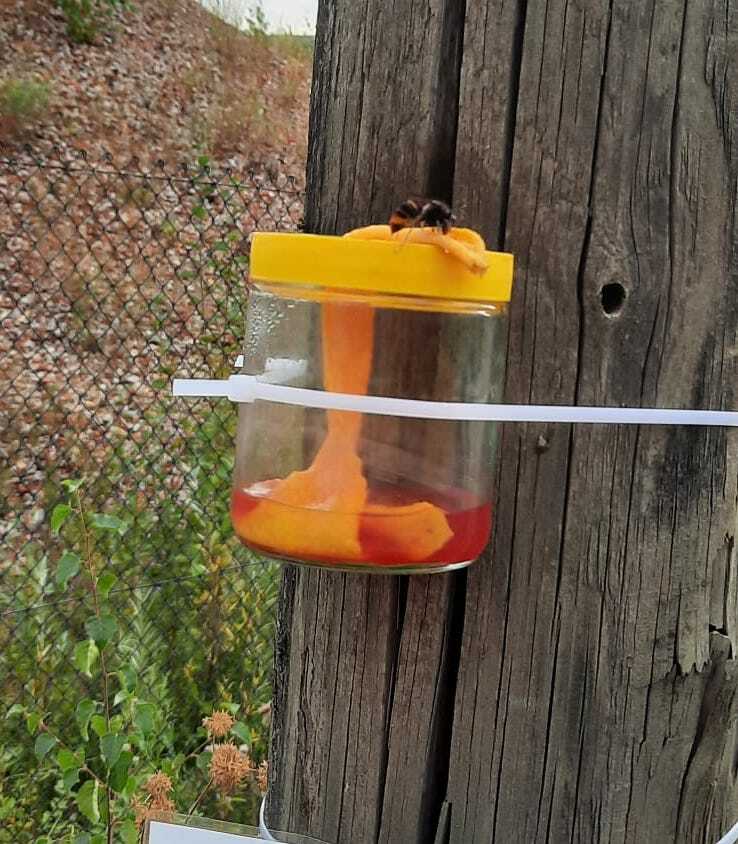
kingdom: Animalia
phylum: Arthropoda
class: Insecta
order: Hymenoptera
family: Vespidae
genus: Vespa
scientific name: Vespa velutina
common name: Asian hornet
